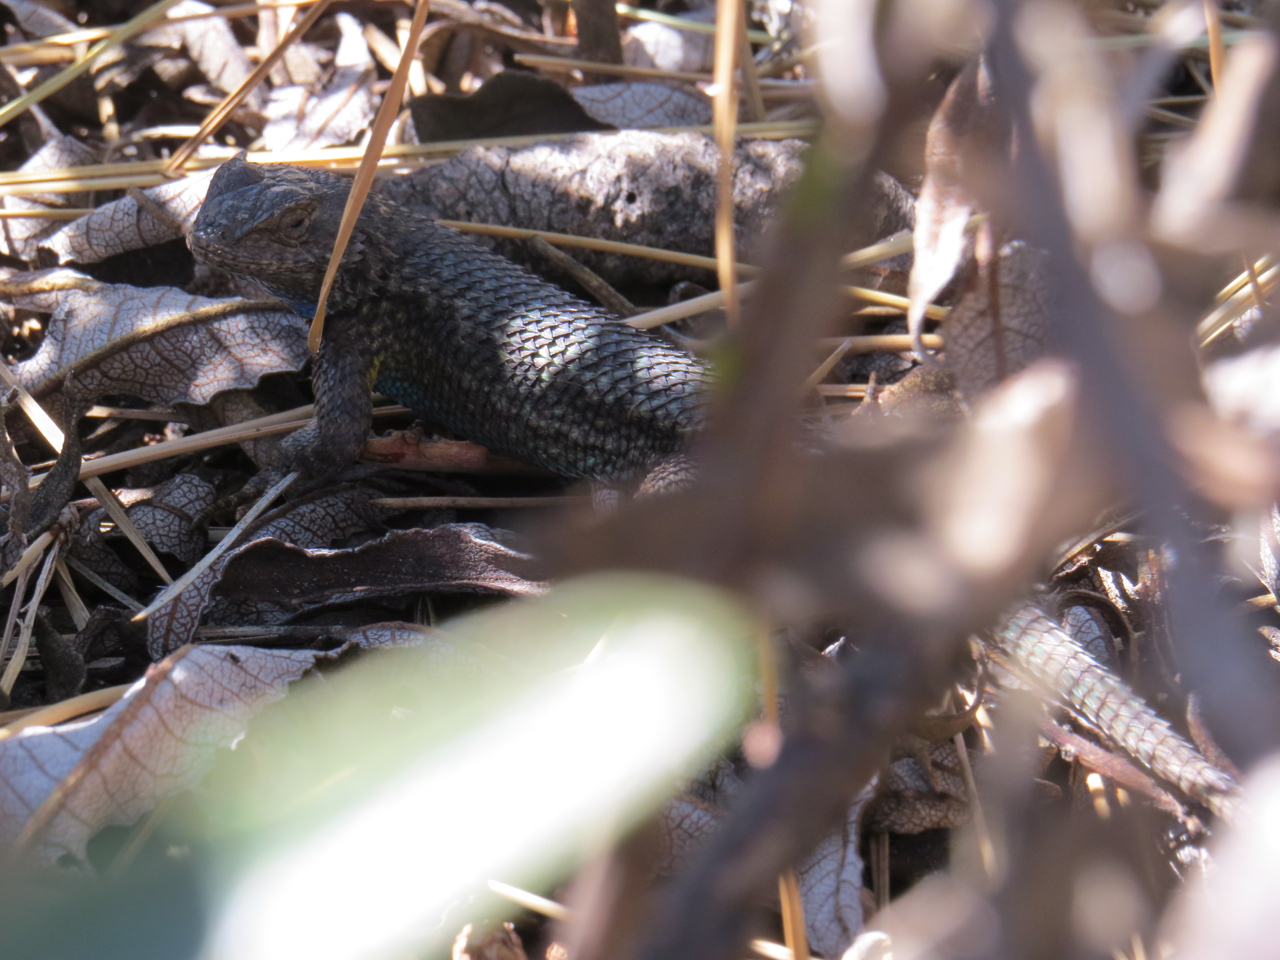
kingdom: Animalia
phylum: Chordata
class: Squamata
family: Phrynosomatidae
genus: Sceloporus
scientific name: Sceloporus occidentalis
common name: Western fence lizard
